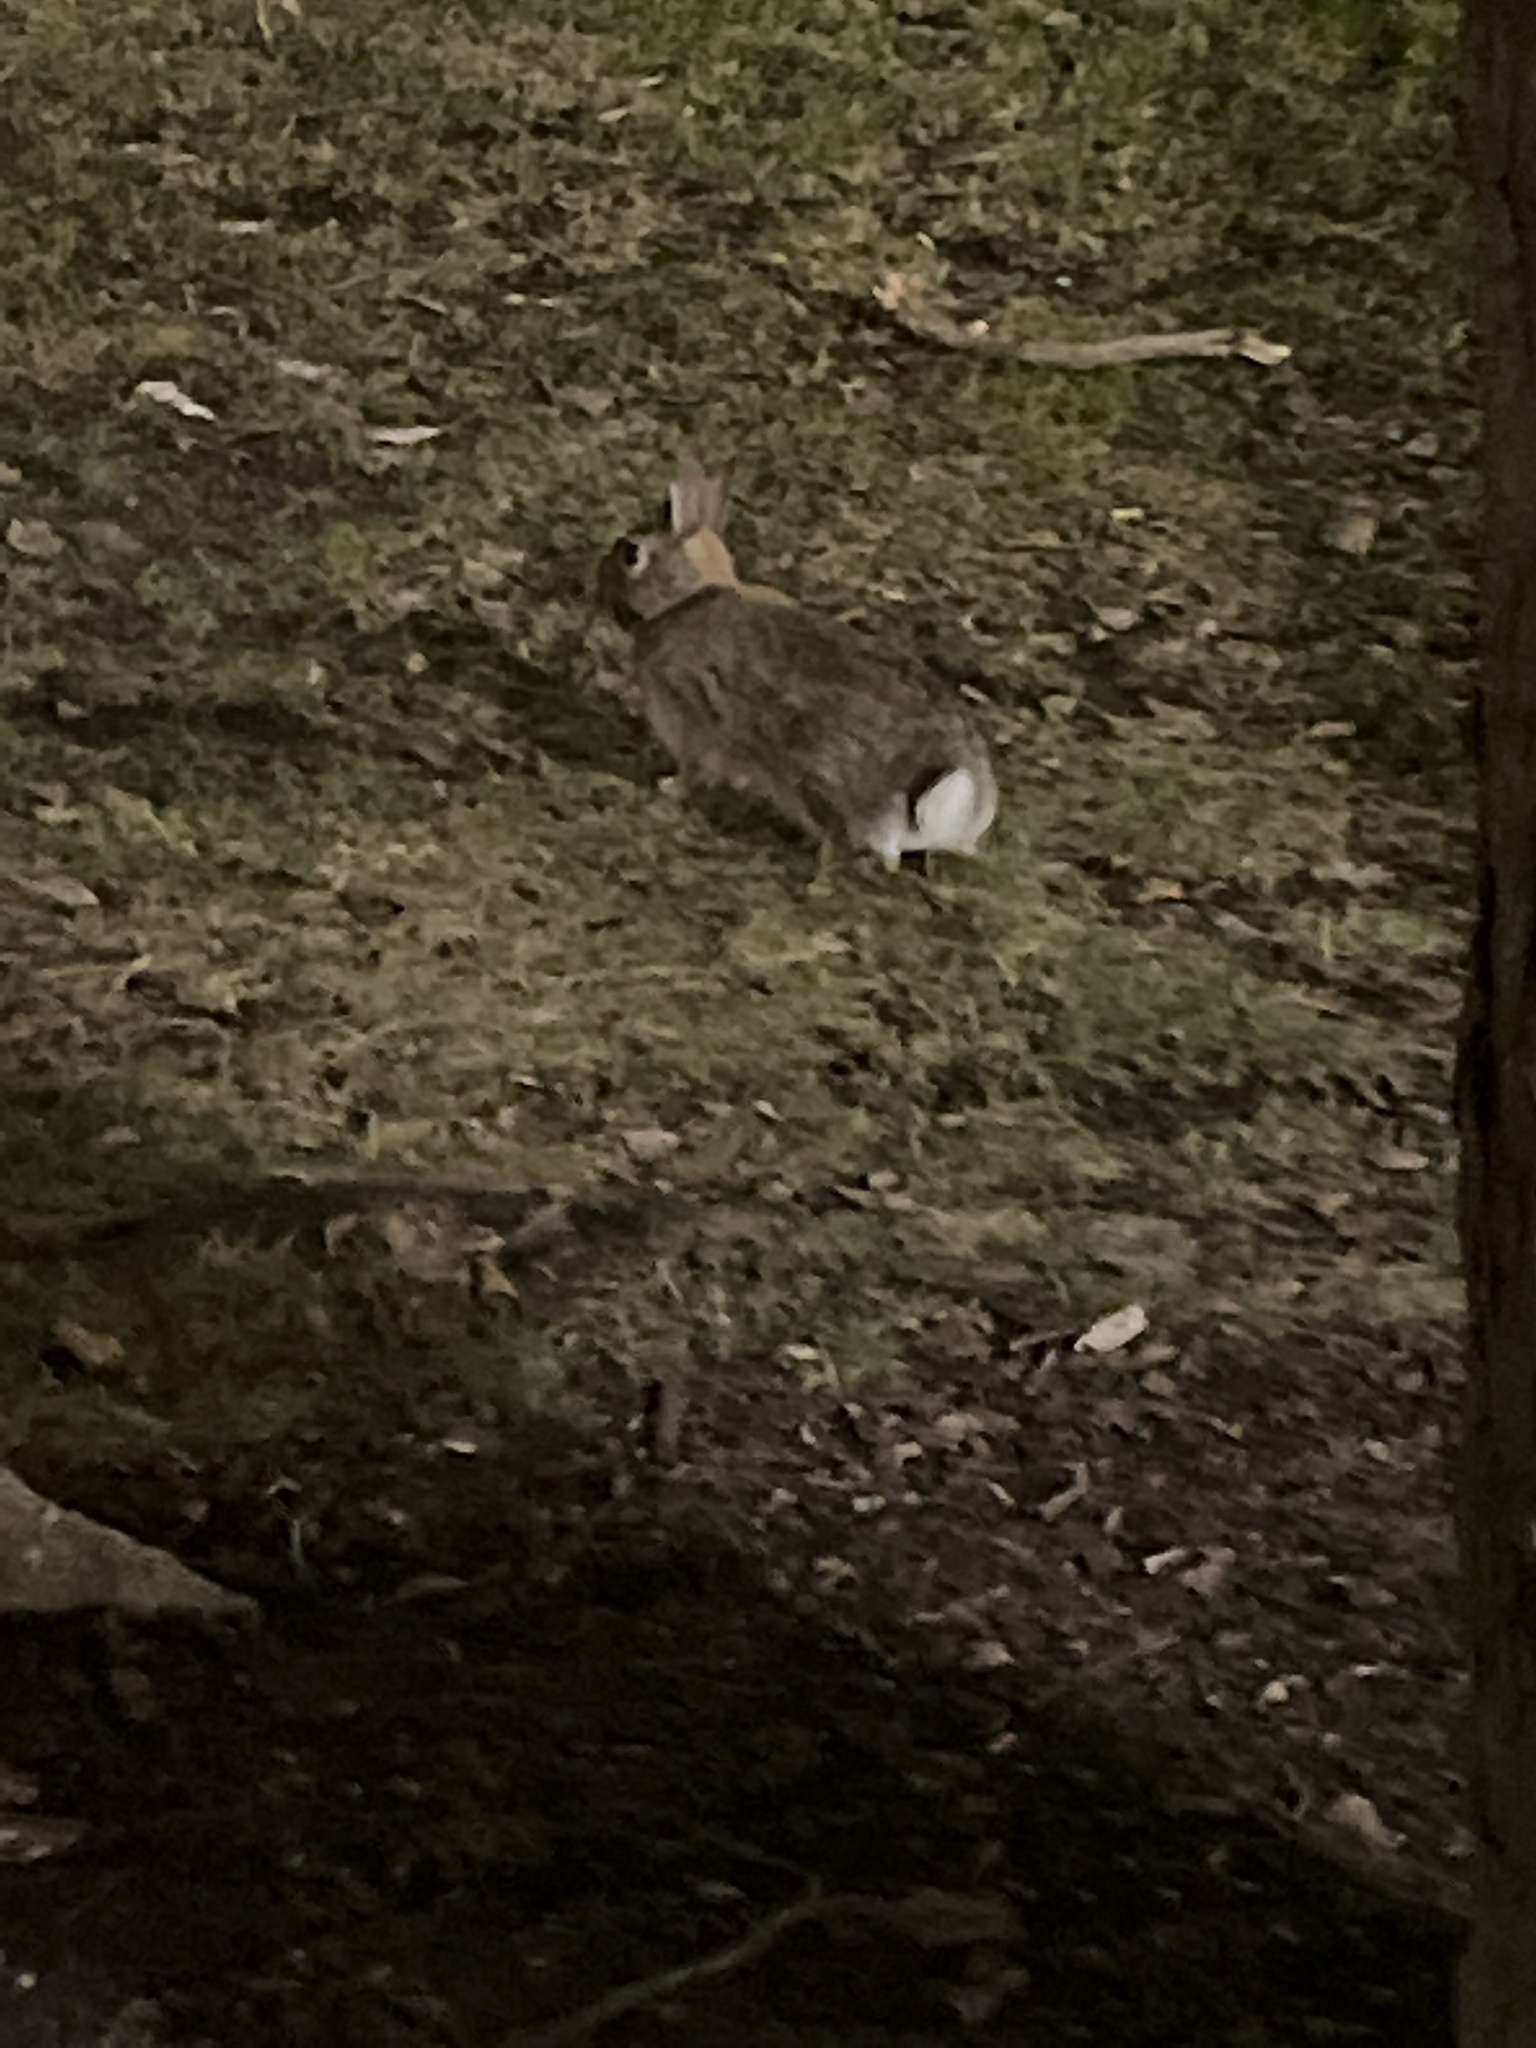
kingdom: Animalia
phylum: Chordata
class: Mammalia
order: Lagomorpha
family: Leporidae
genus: Sylvilagus
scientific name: Sylvilagus floridanus
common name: Eastern cottontail
